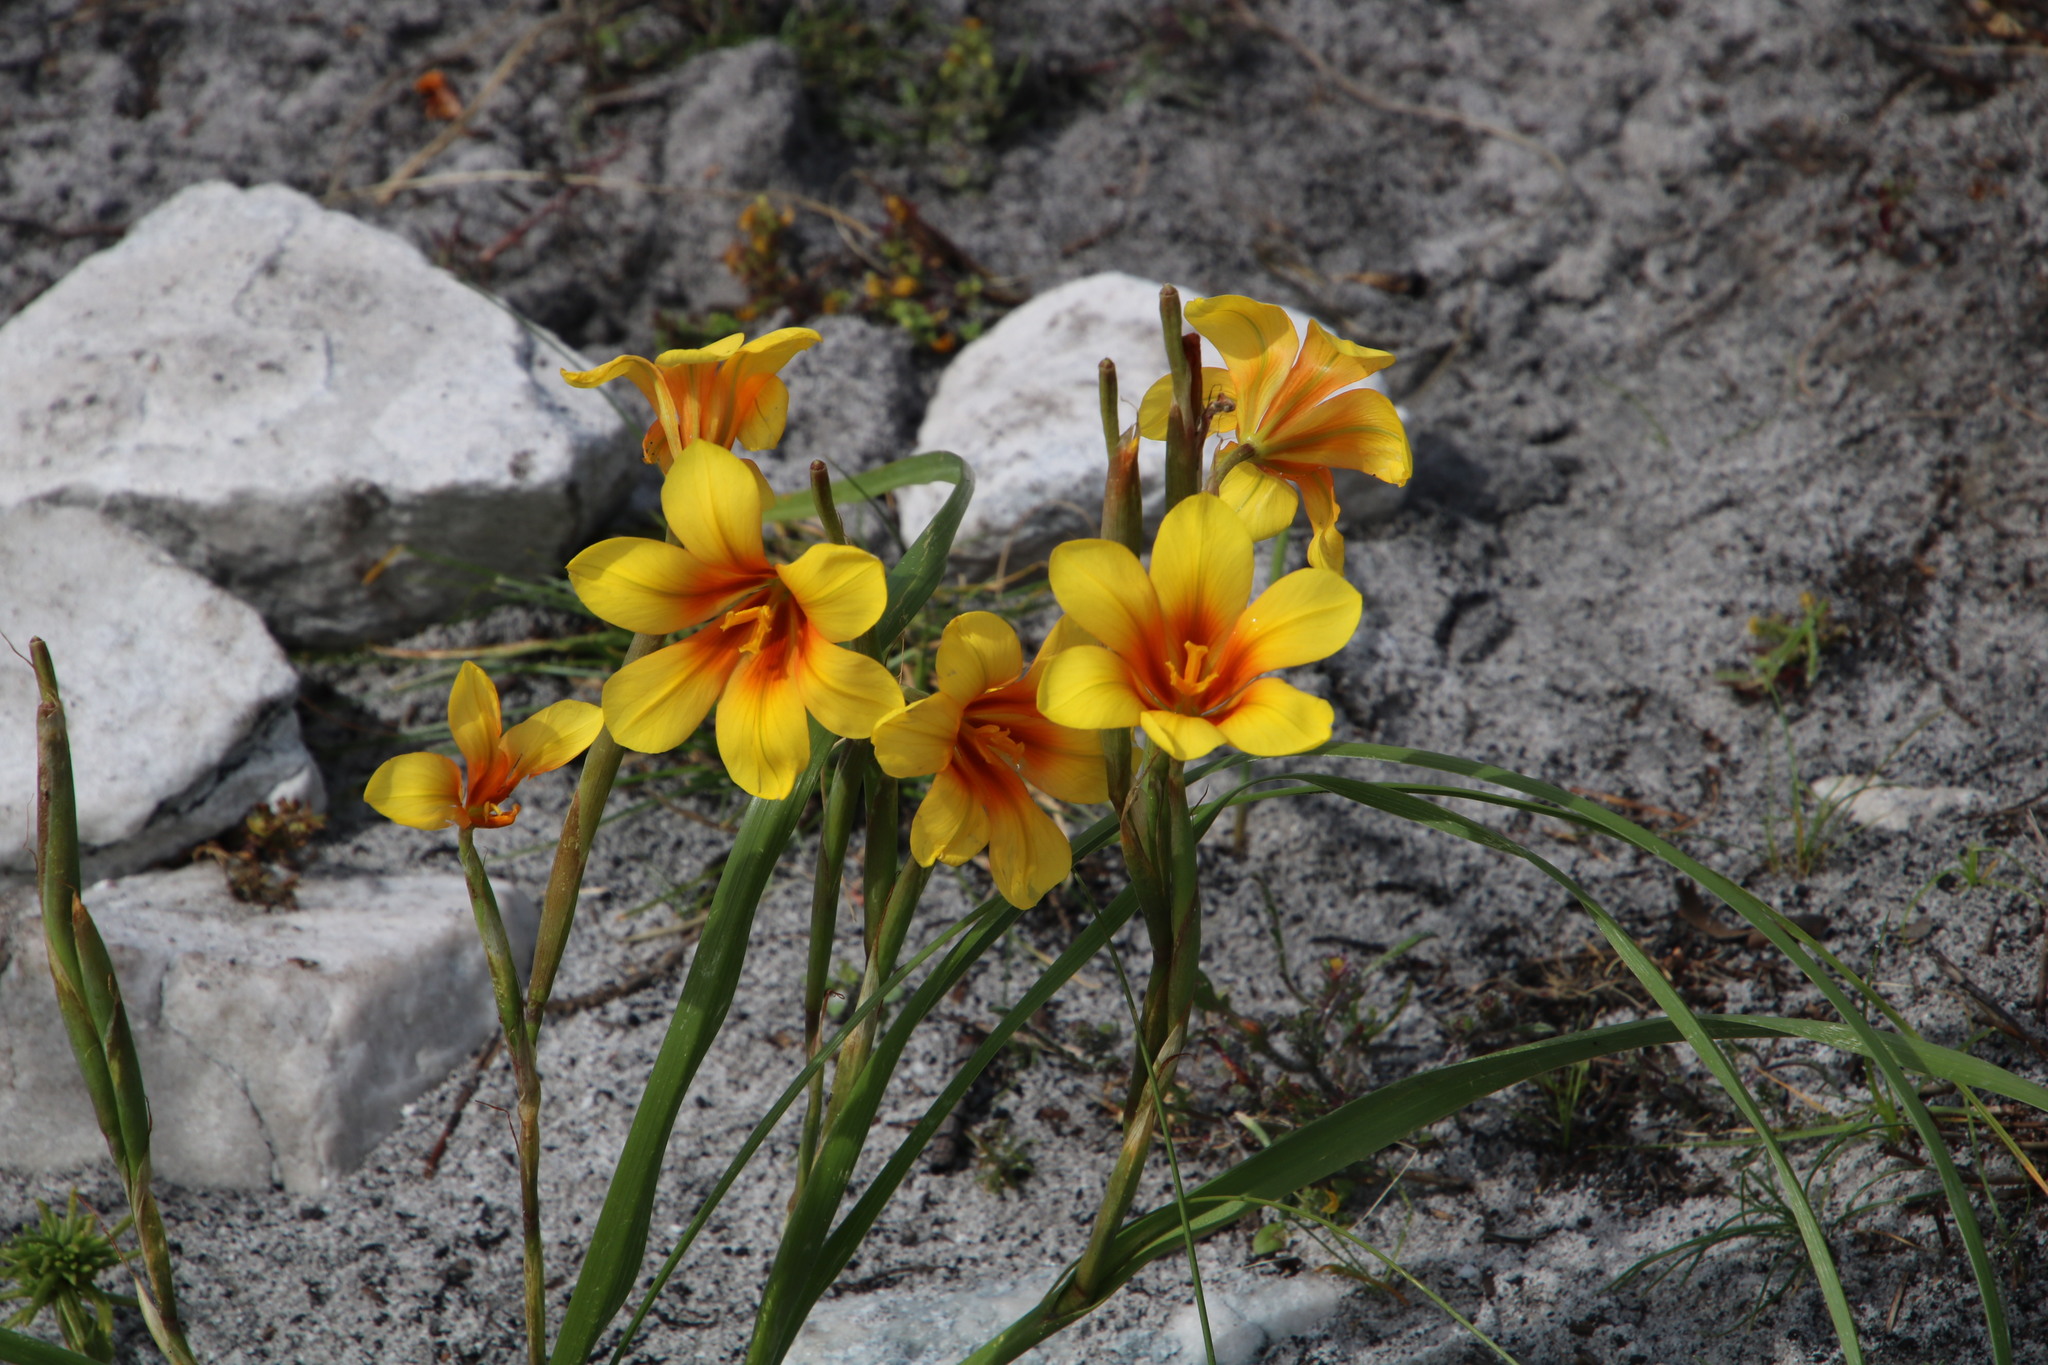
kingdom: Plantae
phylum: Tracheophyta
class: Liliopsida
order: Asparagales
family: Iridaceae
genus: Moraea
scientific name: Moraea ochroleuca
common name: Red tulp
